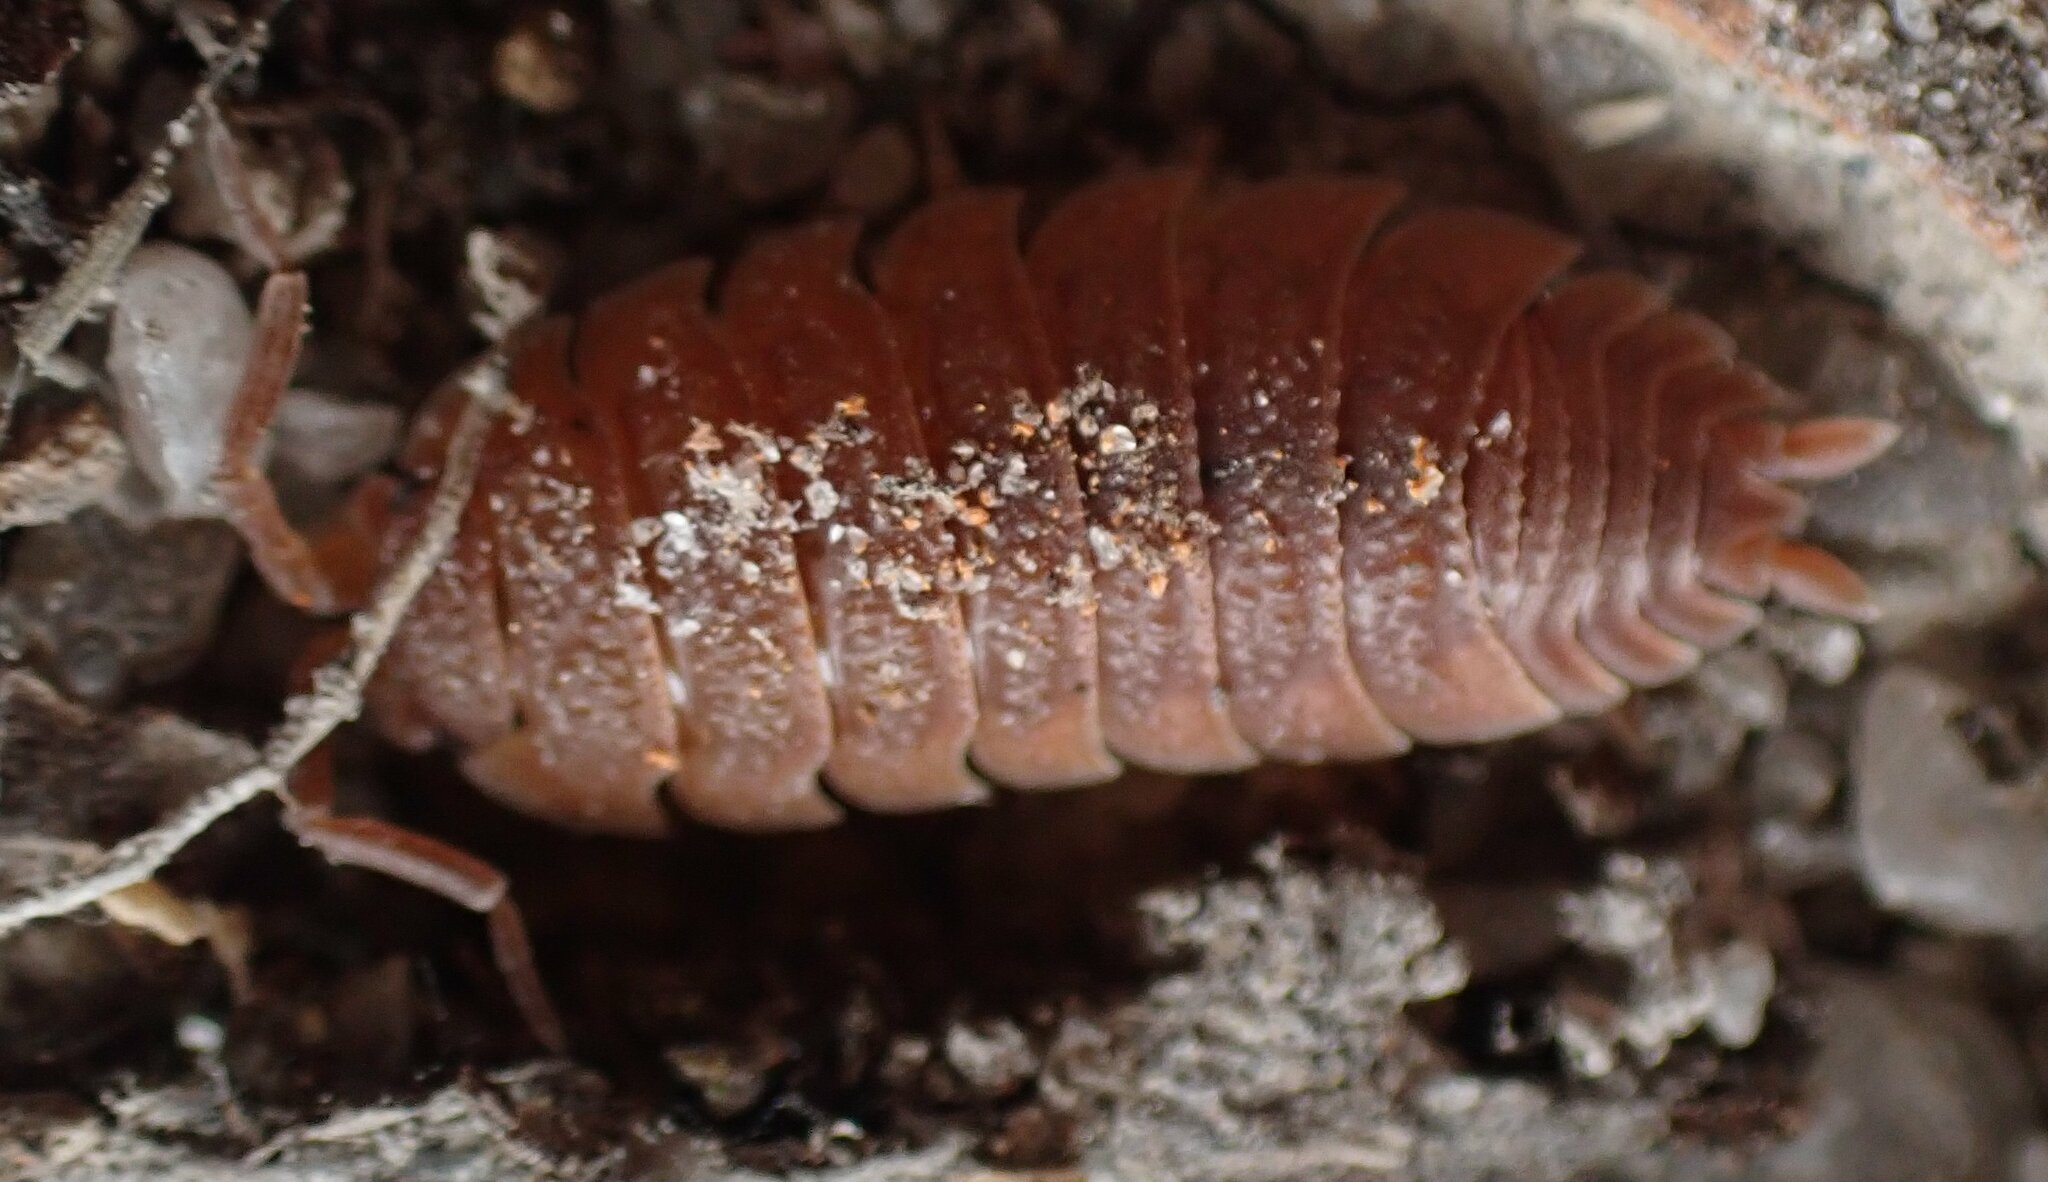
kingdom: Animalia
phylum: Arthropoda
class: Malacostraca
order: Isopoda
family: Porcellionidae
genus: Porcellio
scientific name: Porcellio scaber
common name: Common rough woodlouse
